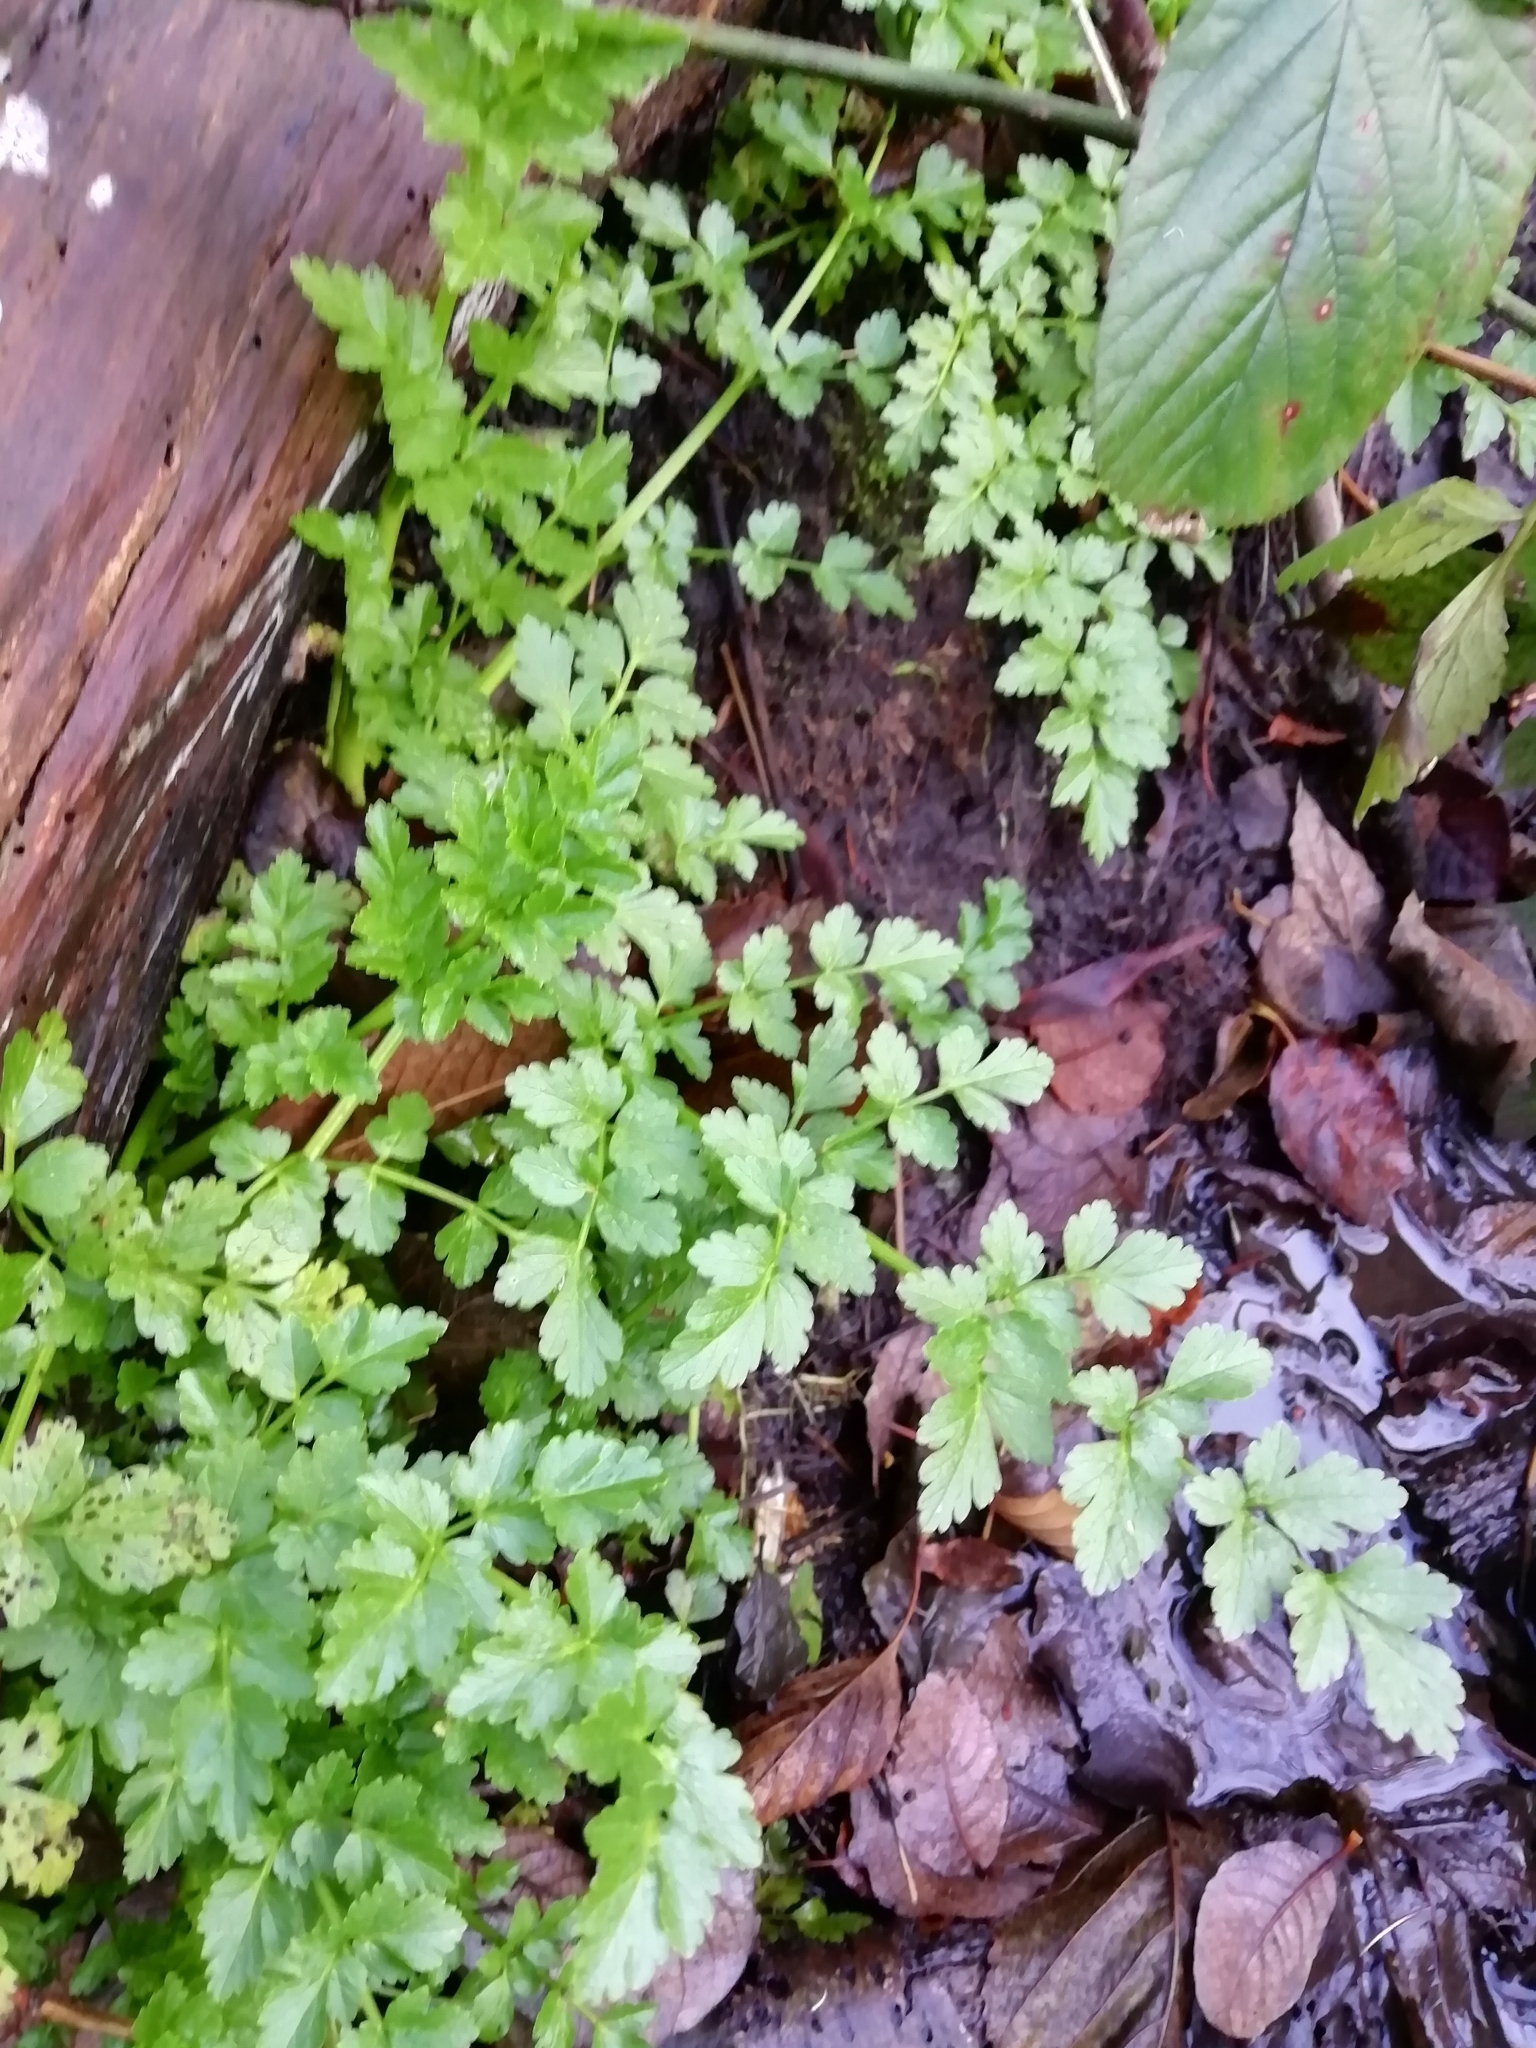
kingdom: Plantae
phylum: Tracheophyta
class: Magnoliopsida
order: Apiales
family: Apiaceae
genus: Oenanthe
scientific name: Oenanthe crocata
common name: Hemlock water-dropwort
